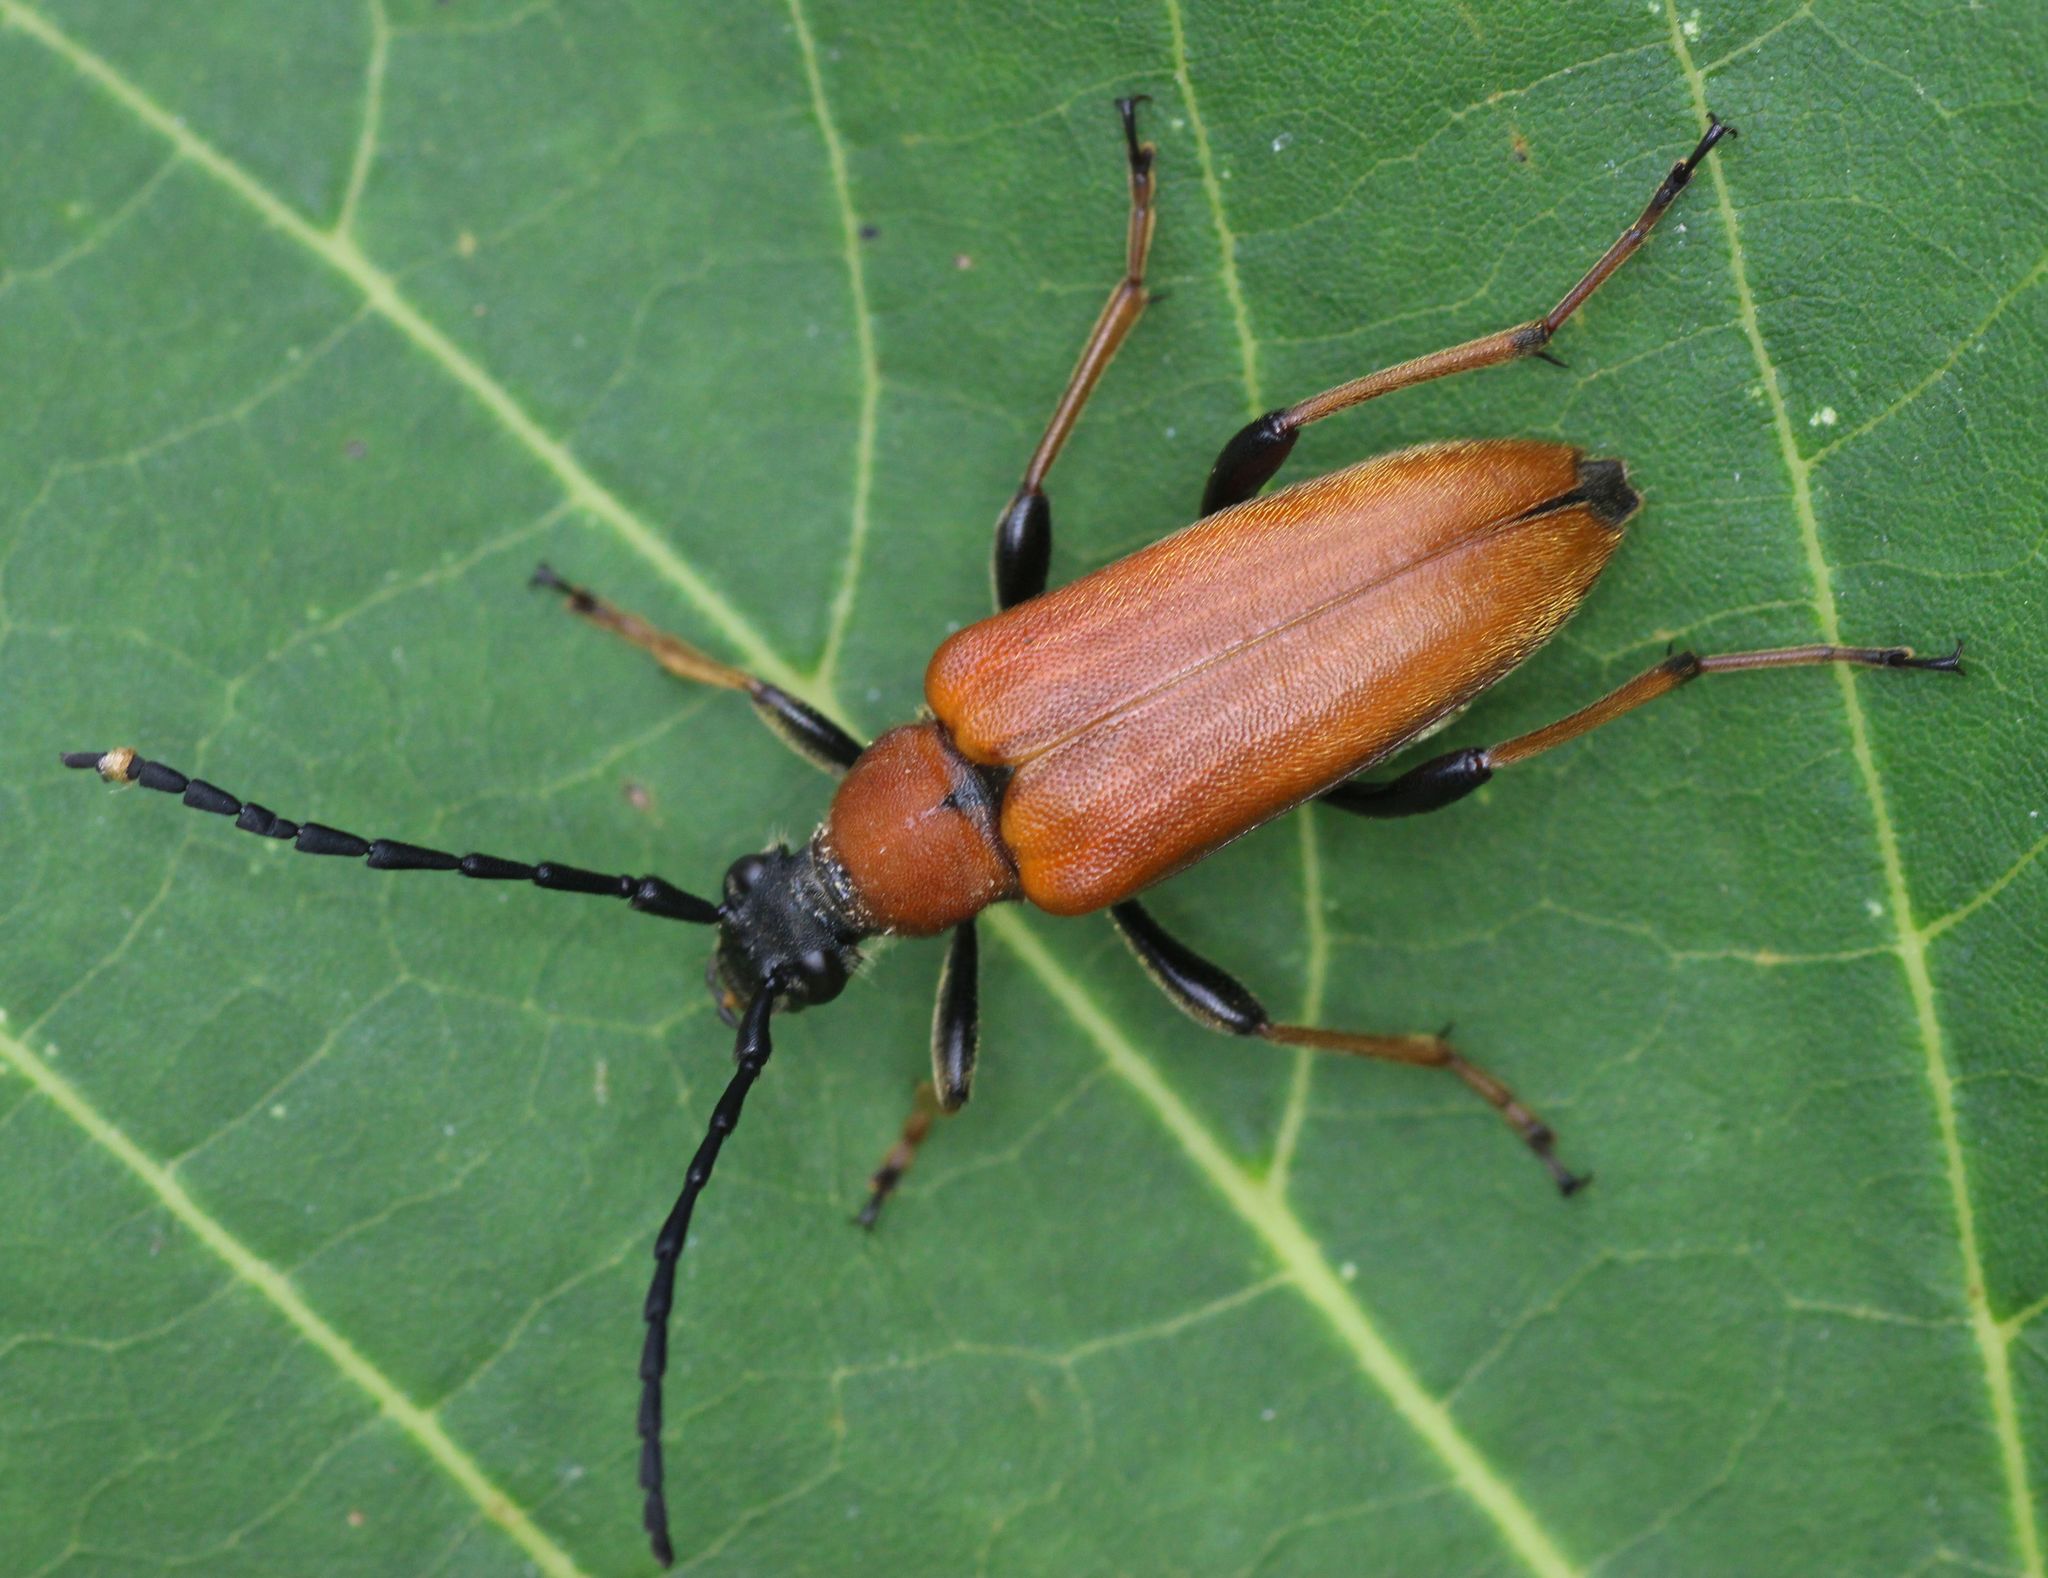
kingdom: Animalia
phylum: Arthropoda
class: Insecta
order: Coleoptera
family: Cerambycidae
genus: Stictoleptura
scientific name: Stictoleptura rubra
